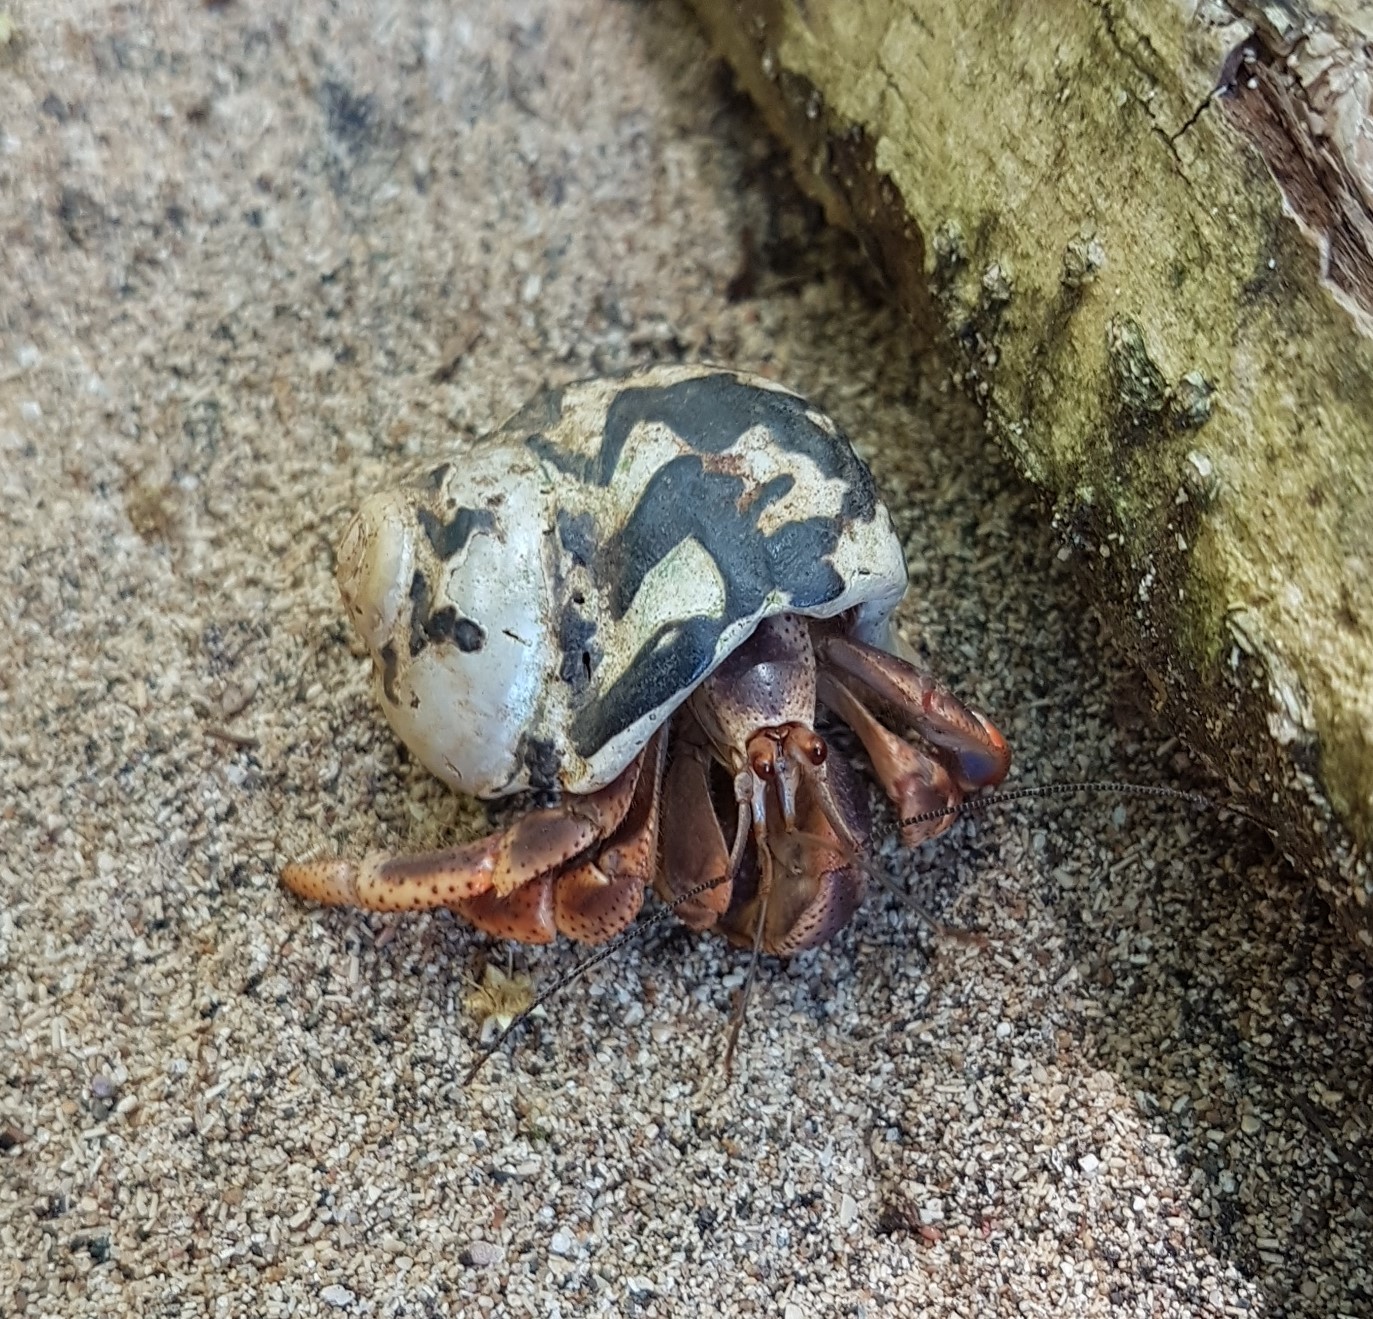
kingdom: Animalia
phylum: Arthropoda
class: Malacostraca
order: Decapoda
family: Coenobitidae
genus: Coenobita
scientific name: Coenobita clypeatus
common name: Caribbean hermit crab
